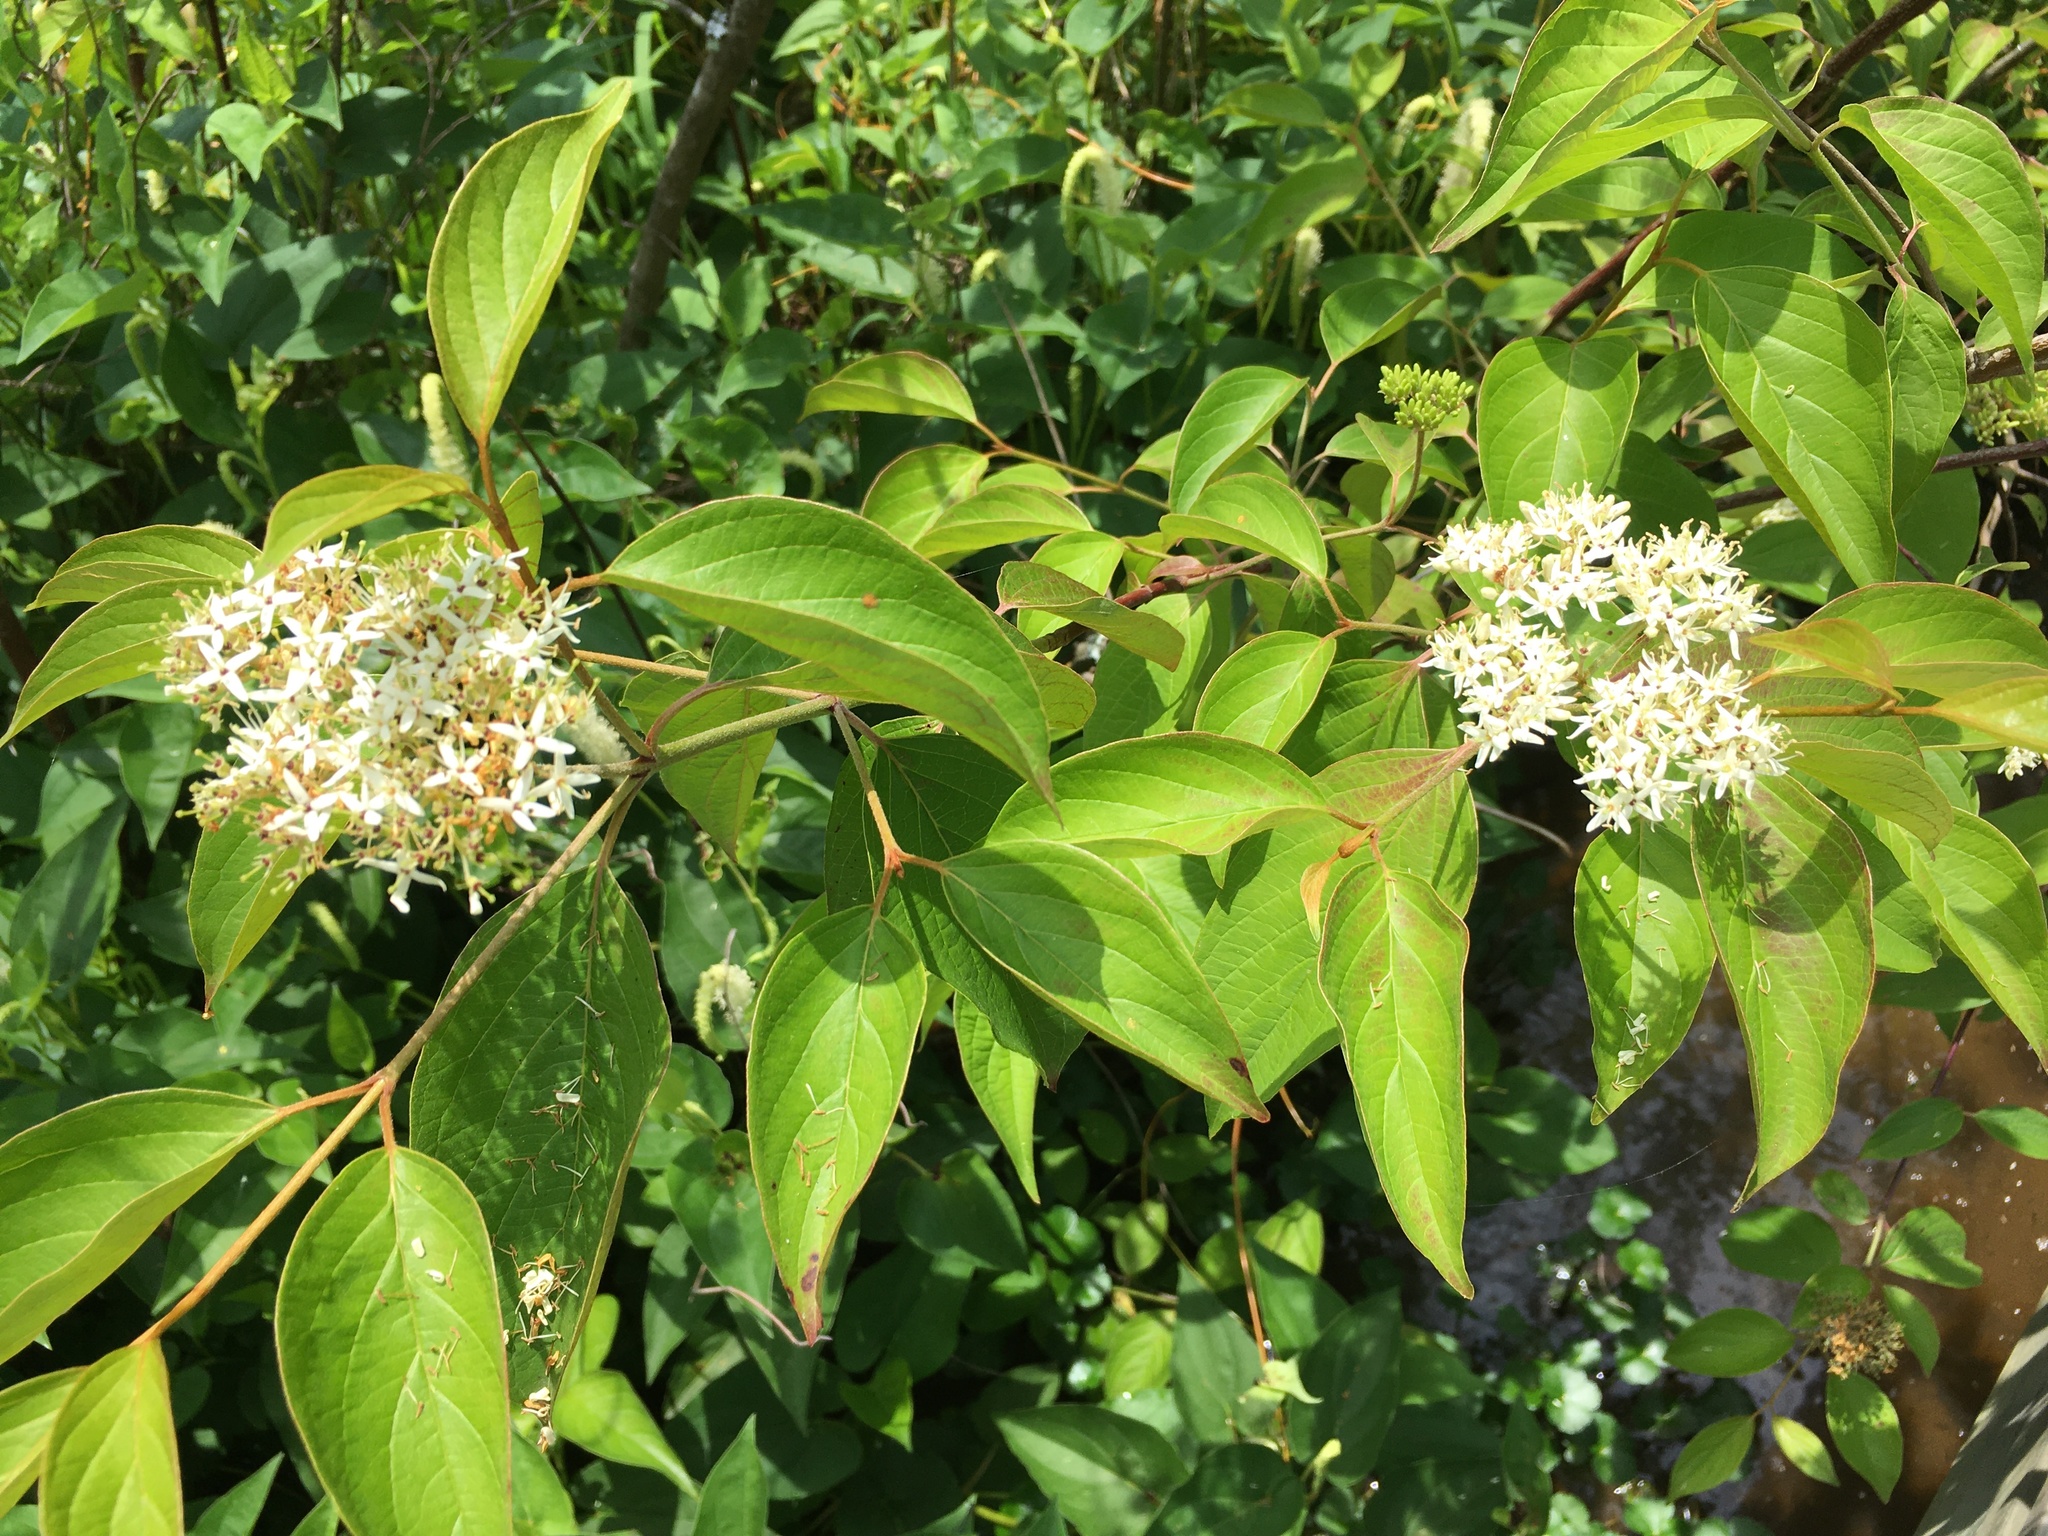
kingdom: Plantae
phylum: Tracheophyta
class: Magnoliopsida
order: Cornales
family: Cornaceae
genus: Cornus
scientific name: Cornus racemosa
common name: Panicled dogwood
